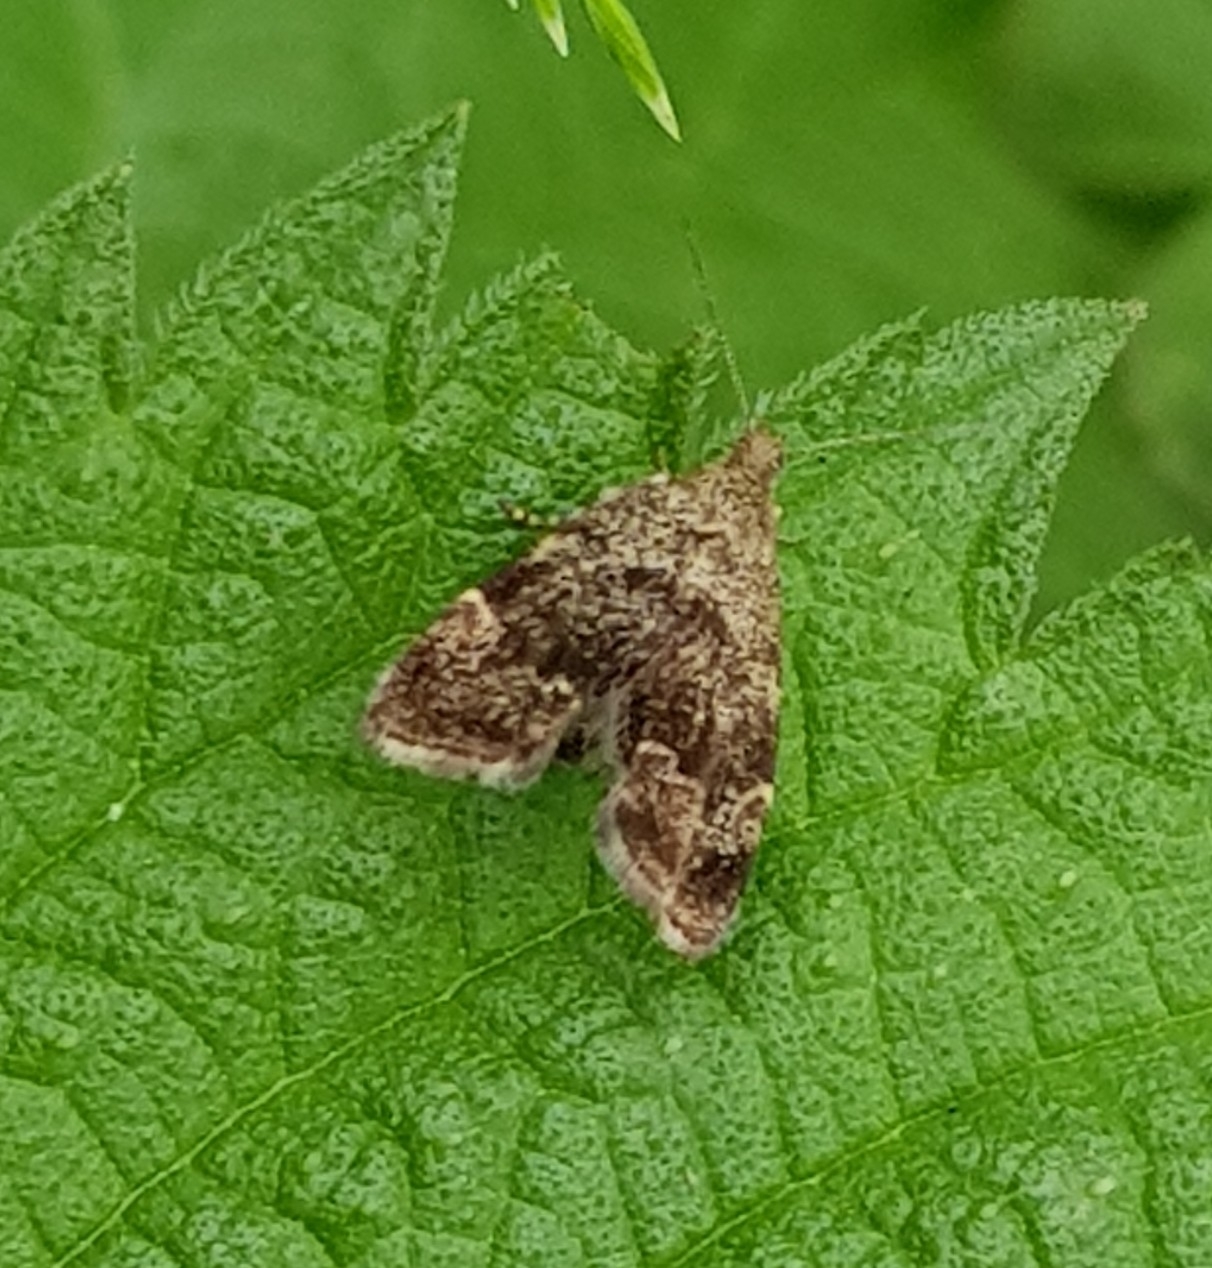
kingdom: Animalia
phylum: Arthropoda
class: Insecta
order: Lepidoptera
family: Choreutidae
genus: Anthophila
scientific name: Anthophila fabriciana
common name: Nettle-tap
